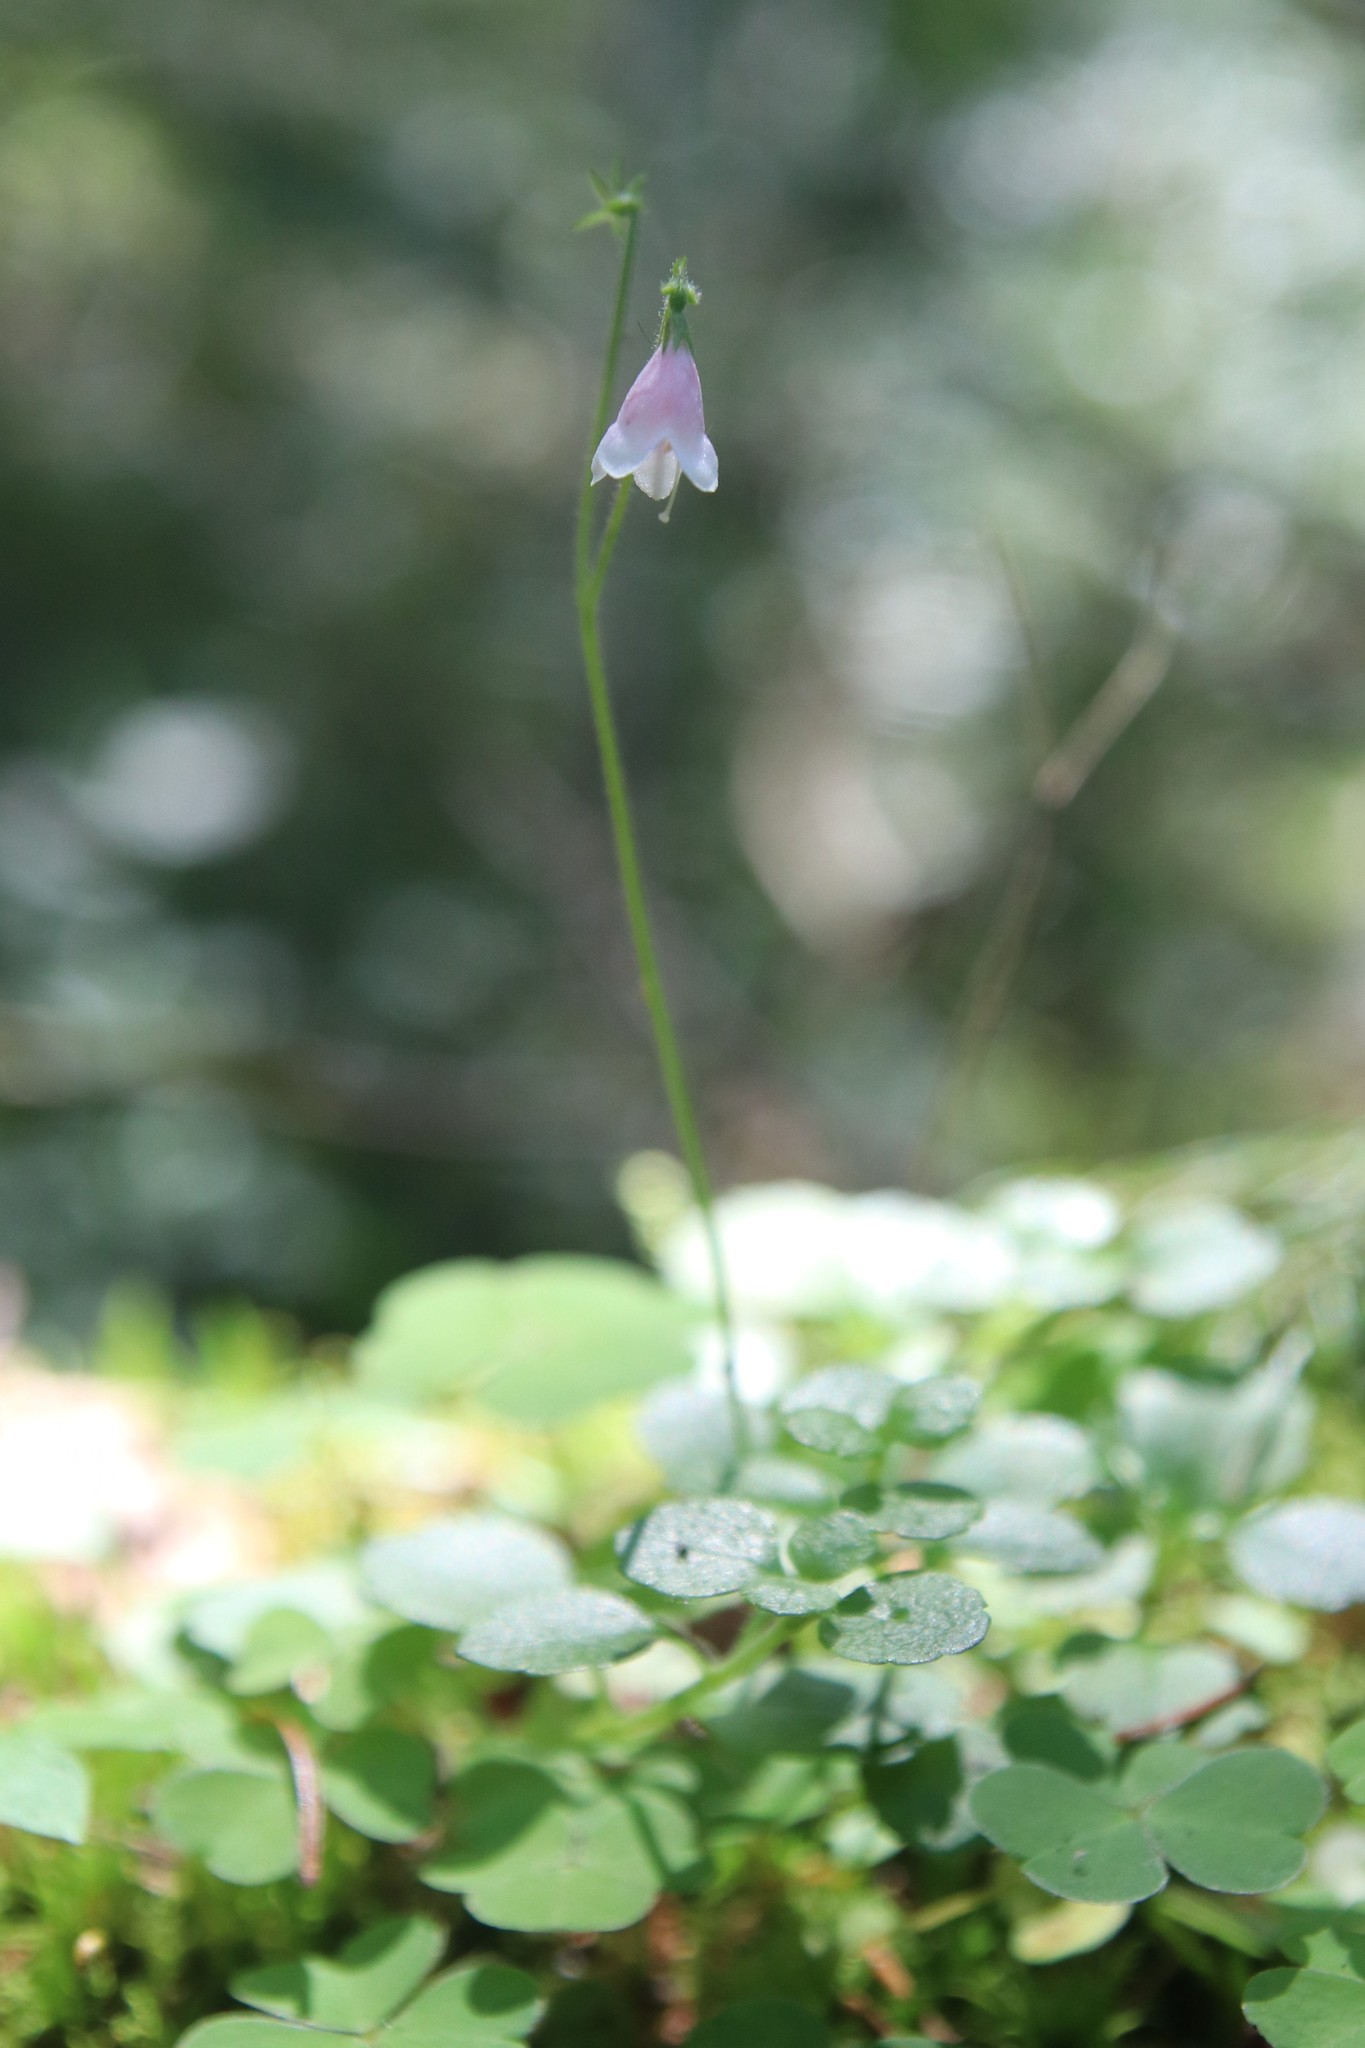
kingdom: Plantae
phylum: Tracheophyta
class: Magnoliopsida
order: Dipsacales
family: Caprifoliaceae
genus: Linnaea
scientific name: Linnaea borealis
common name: Twinflower
